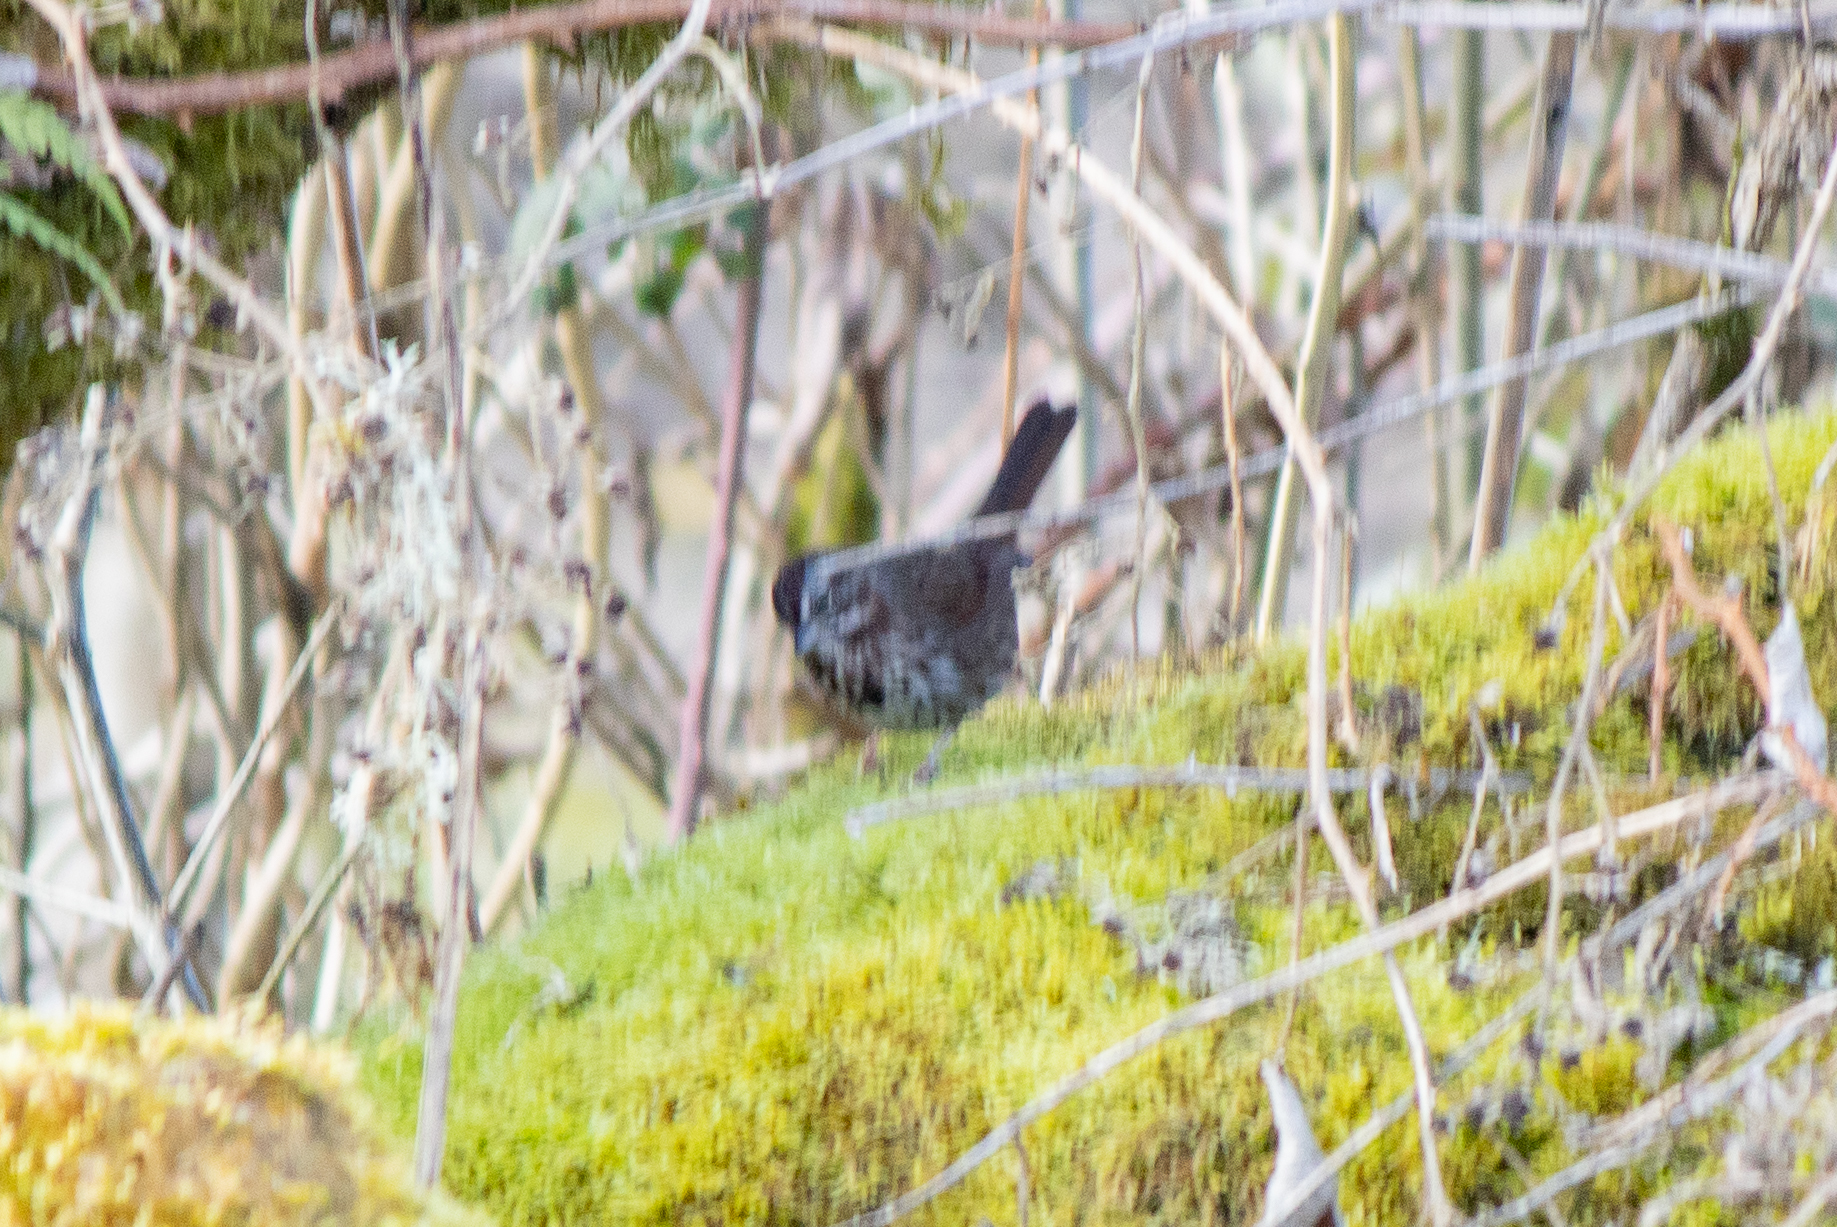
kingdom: Animalia
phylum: Chordata
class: Aves
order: Passeriformes
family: Passerellidae
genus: Melospiza
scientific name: Melospiza melodia
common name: Song sparrow
